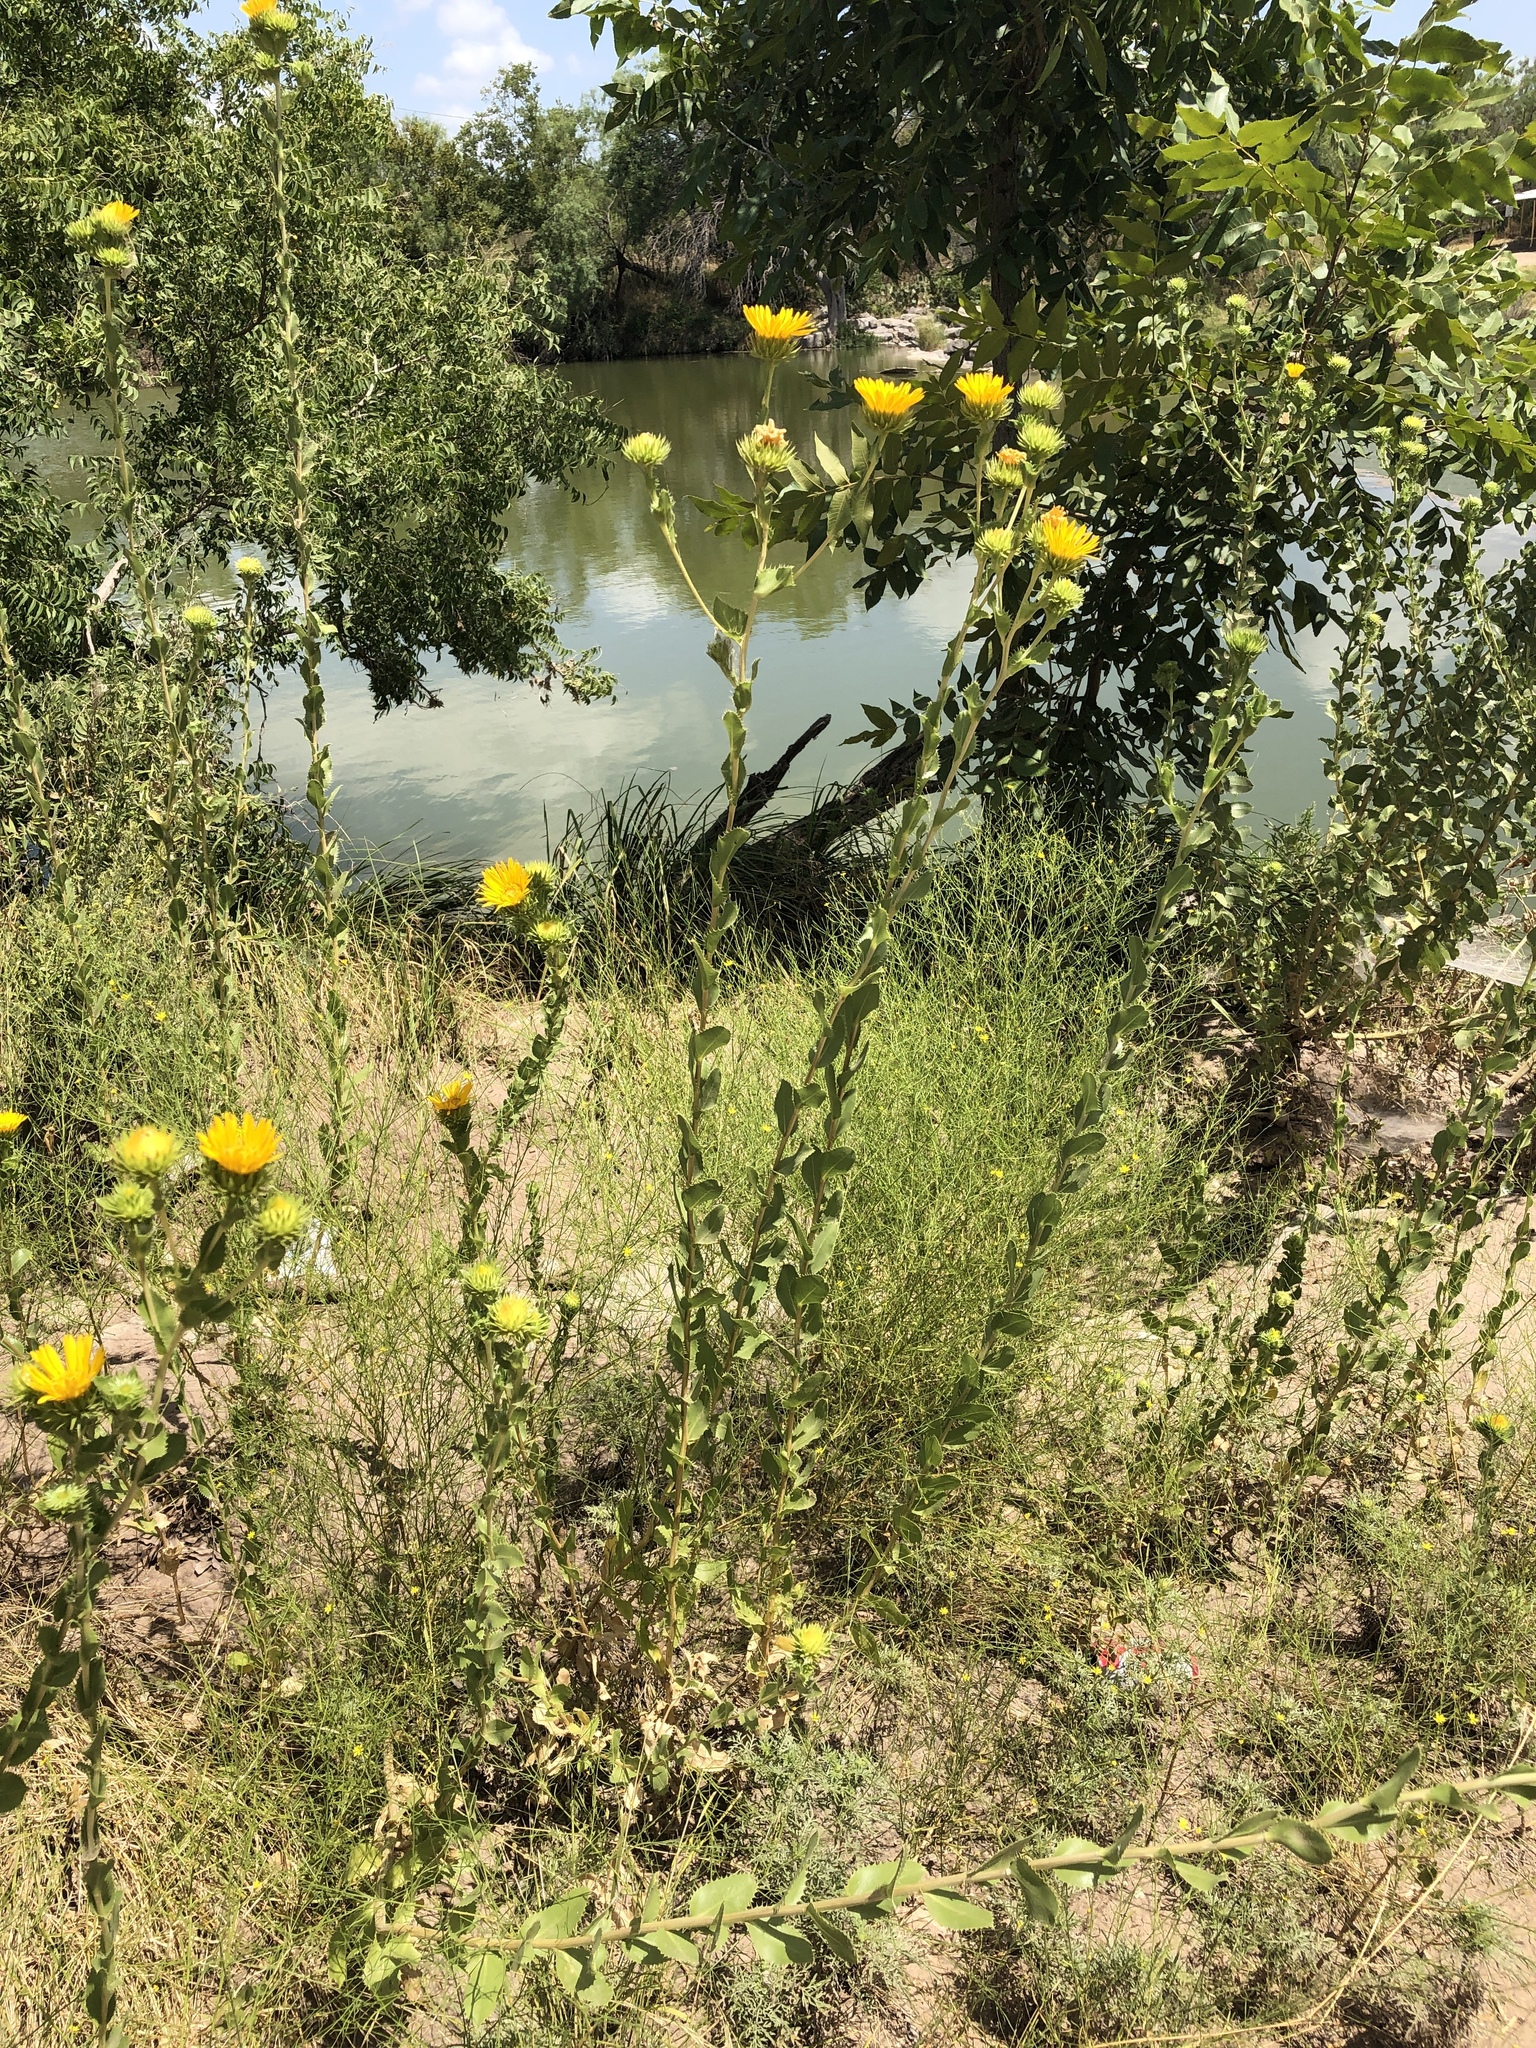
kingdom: Plantae
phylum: Tracheophyta
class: Magnoliopsida
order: Asterales
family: Asteraceae
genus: Grindelia
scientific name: Grindelia ciliata
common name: Goldenweed
